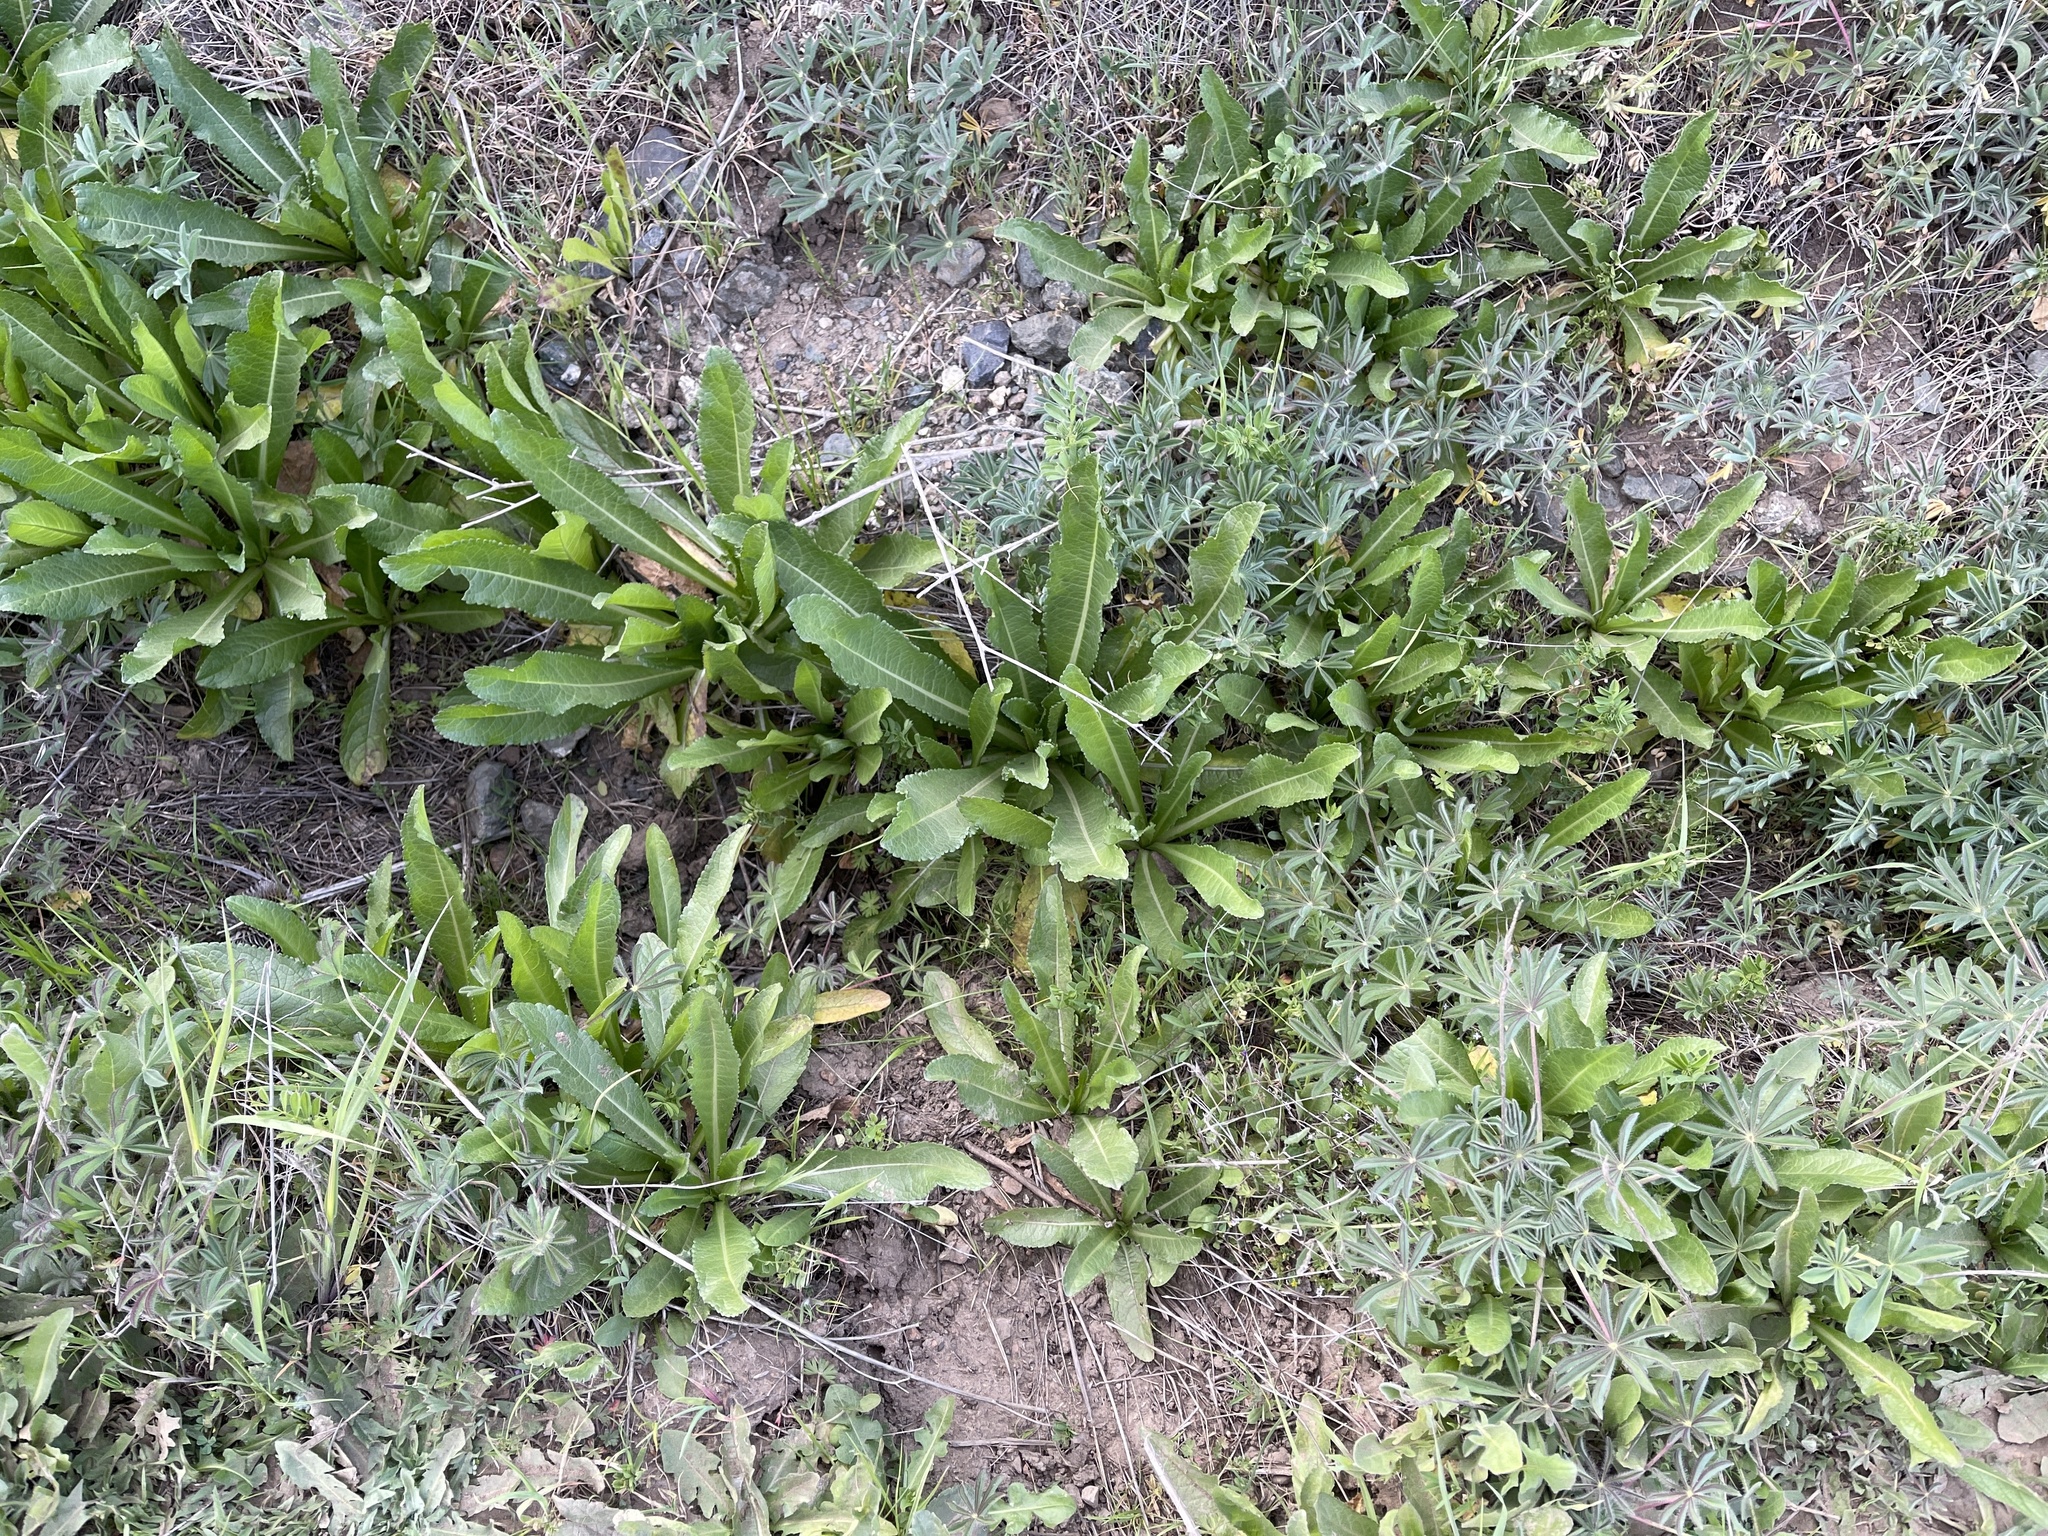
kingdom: Plantae
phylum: Tracheophyta
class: Magnoliopsida
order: Dipsacales
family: Caprifoliaceae
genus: Dipsacus
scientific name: Dipsacus sativus
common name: Fuller's teasel
